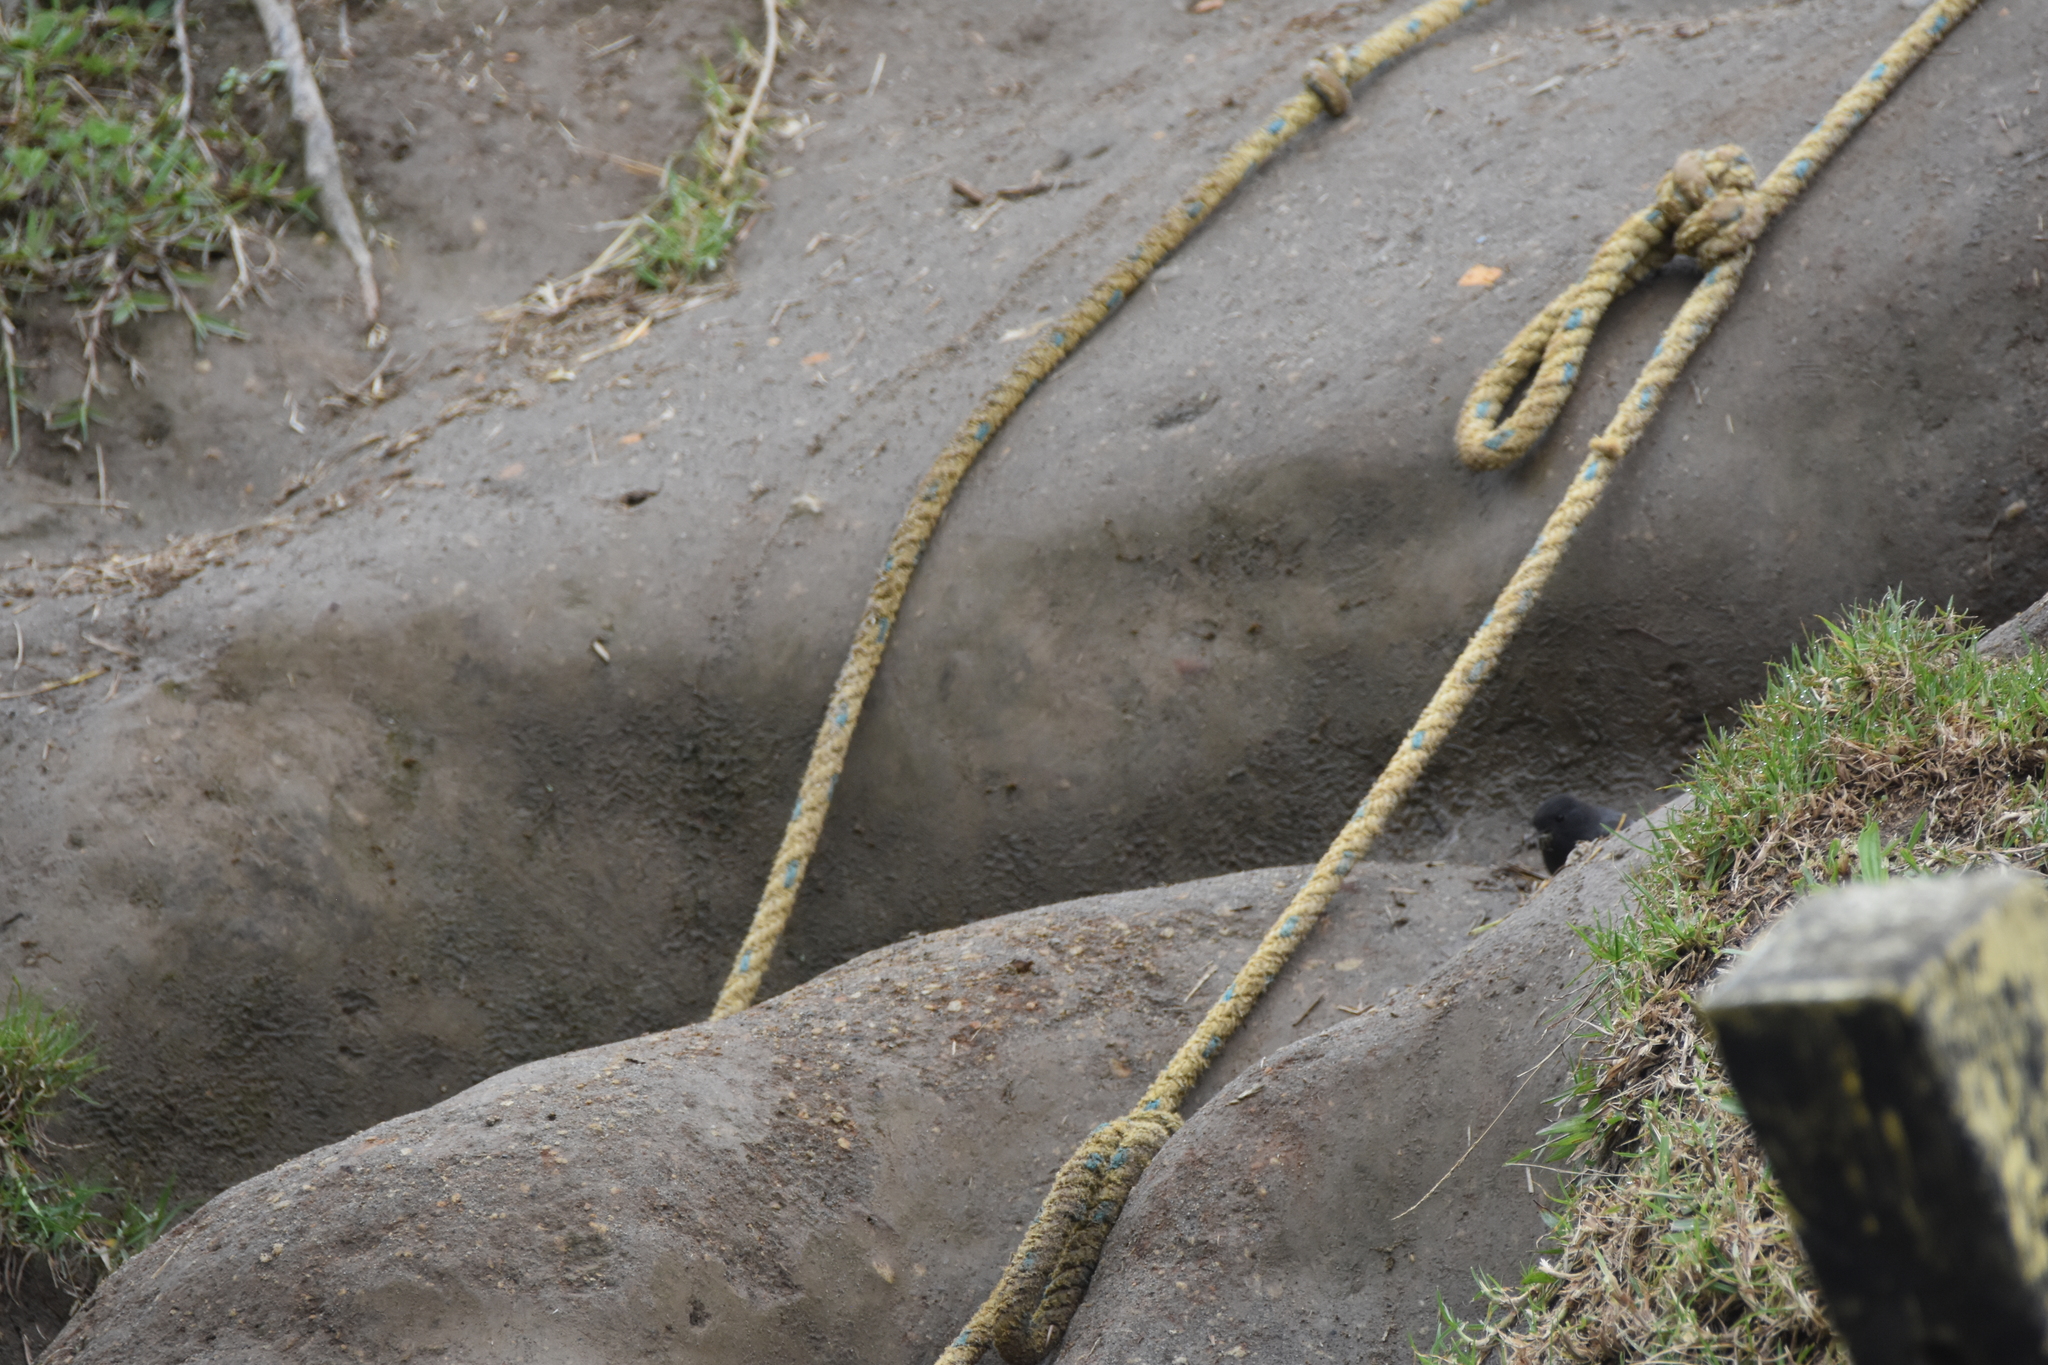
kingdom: Animalia
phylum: Chordata
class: Aves
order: Passeriformes
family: Tyrannidae
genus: Sayornis
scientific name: Sayornis nigricans
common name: Black phoebe
